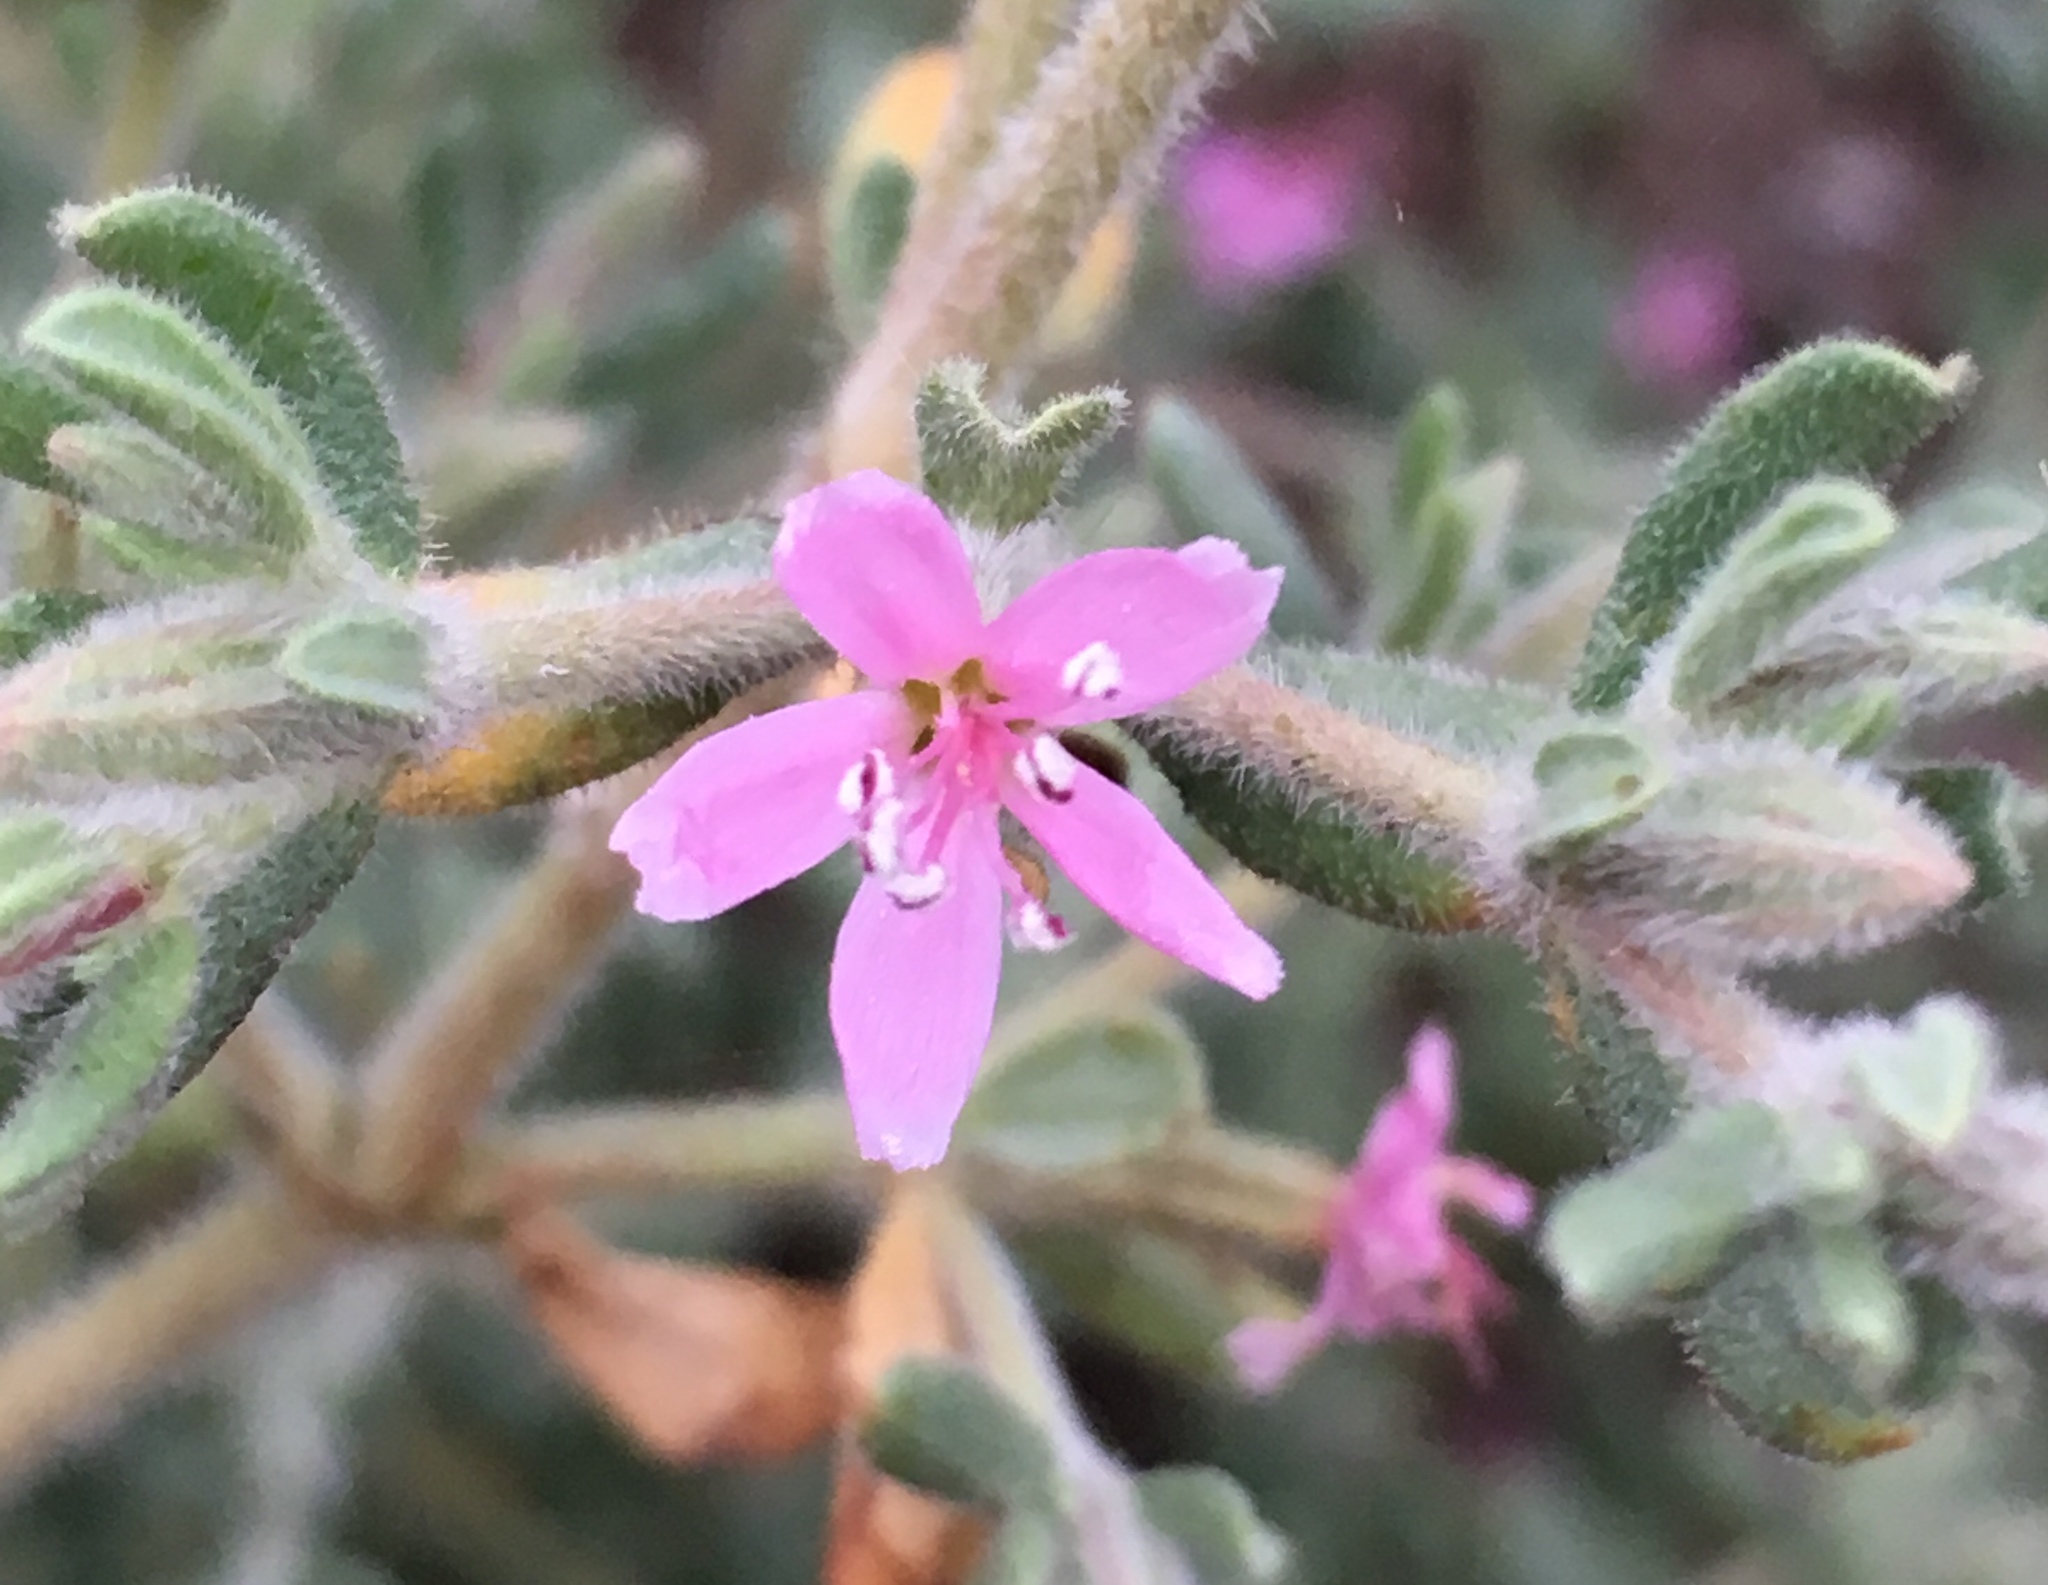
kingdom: Plantae
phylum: Tracheophyta
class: Magnoliopsida
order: Caryophyllales
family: Frankeniaceae
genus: Frankenia
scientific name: Frankenia salina
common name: Alkali seaheath
